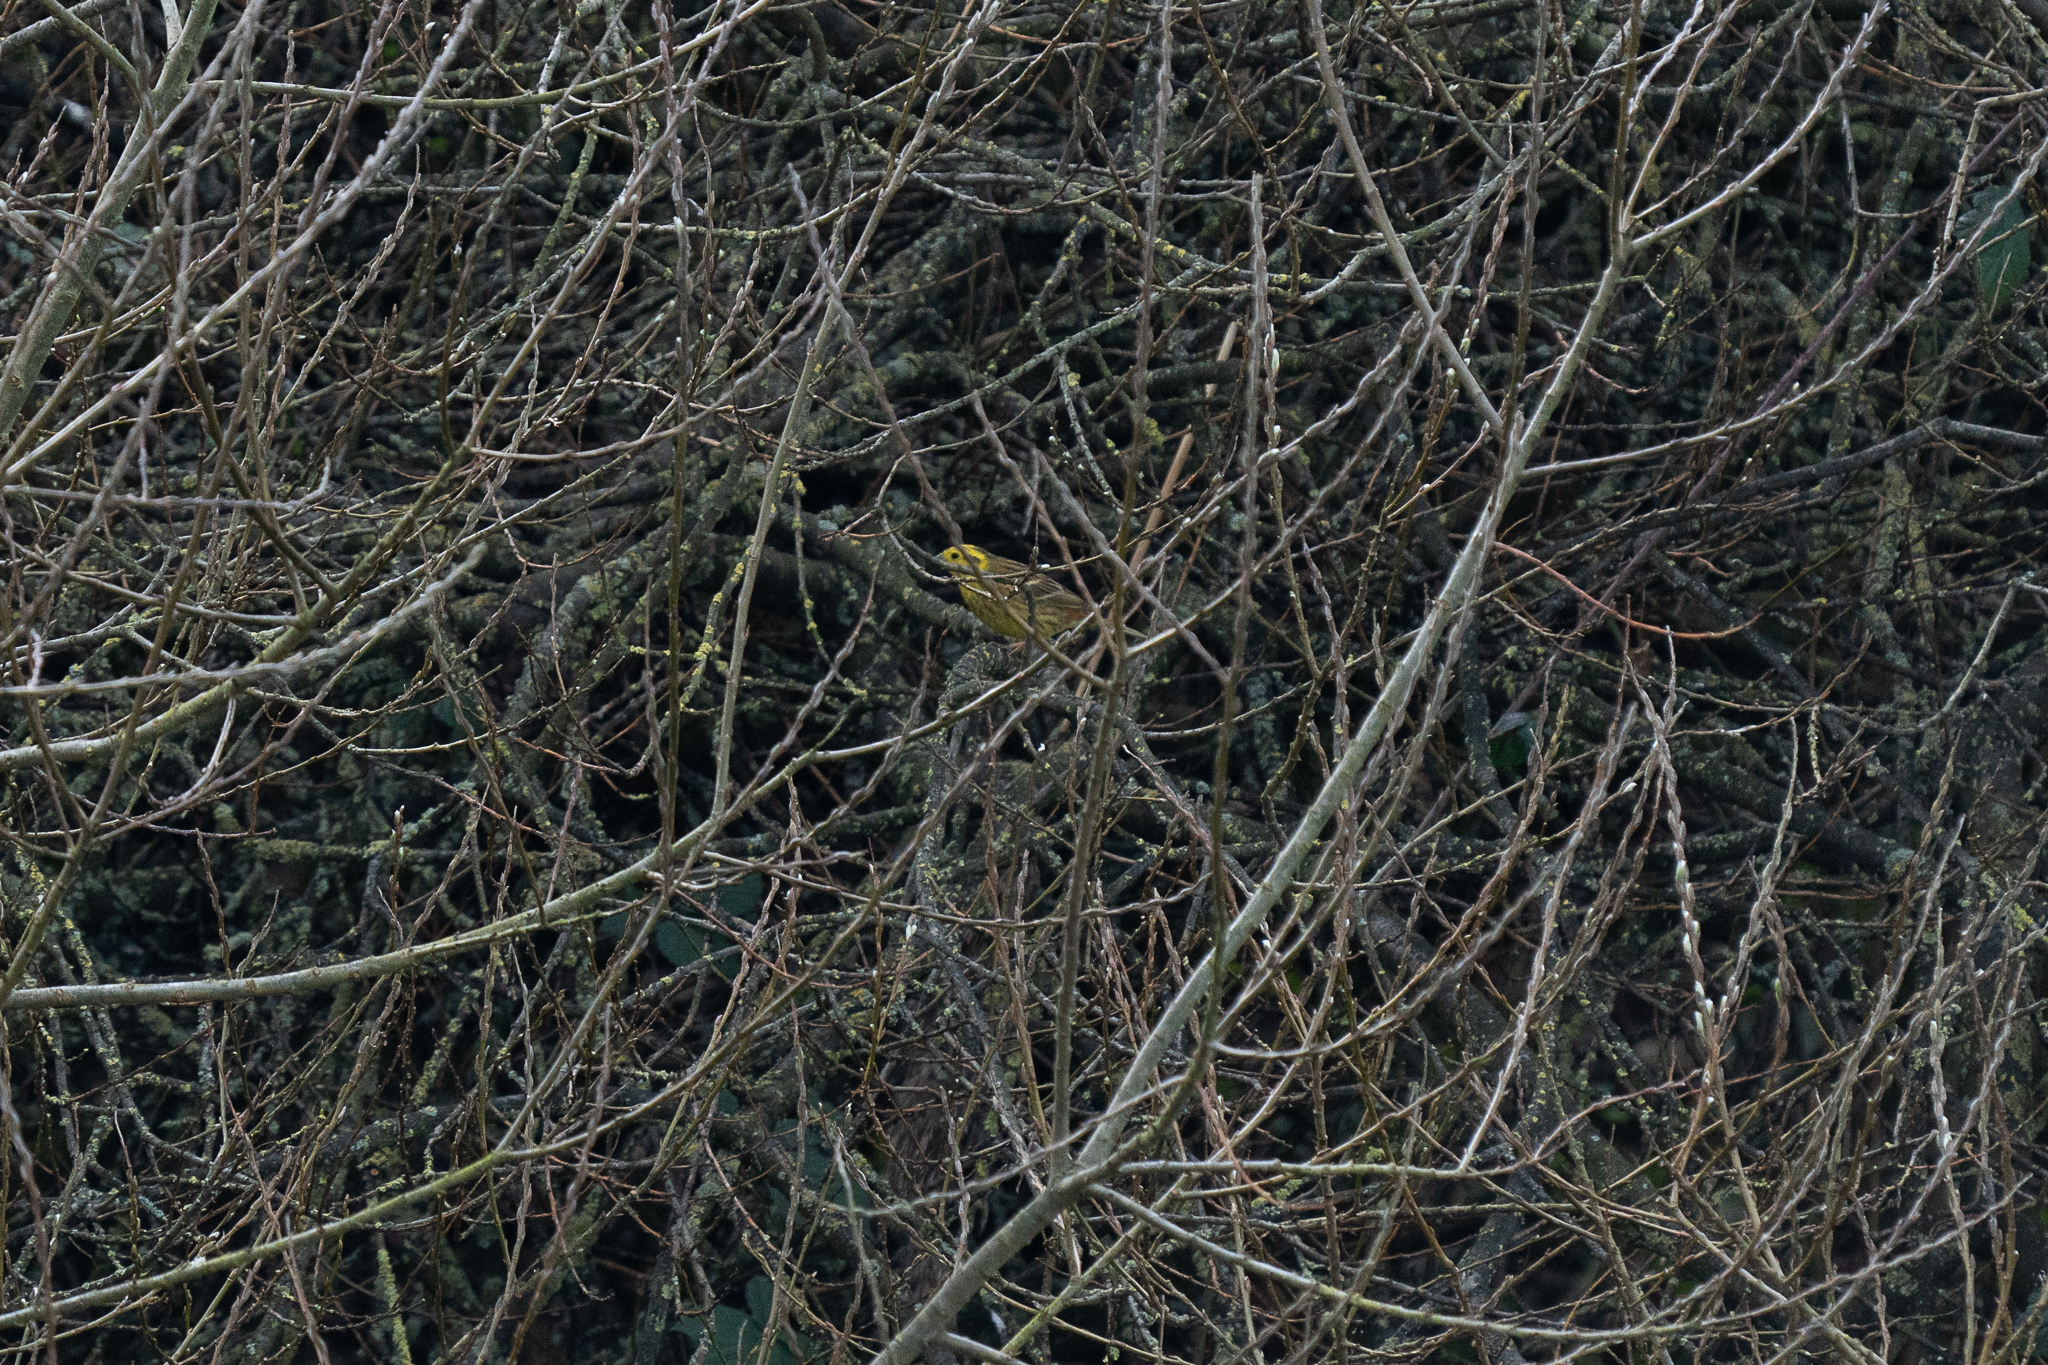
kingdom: Animalia
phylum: Chordata
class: Aves
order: Passeriformes
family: Emberizidae
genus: Emberiza
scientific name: Emberiza citrinella
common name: Yellowhammer
